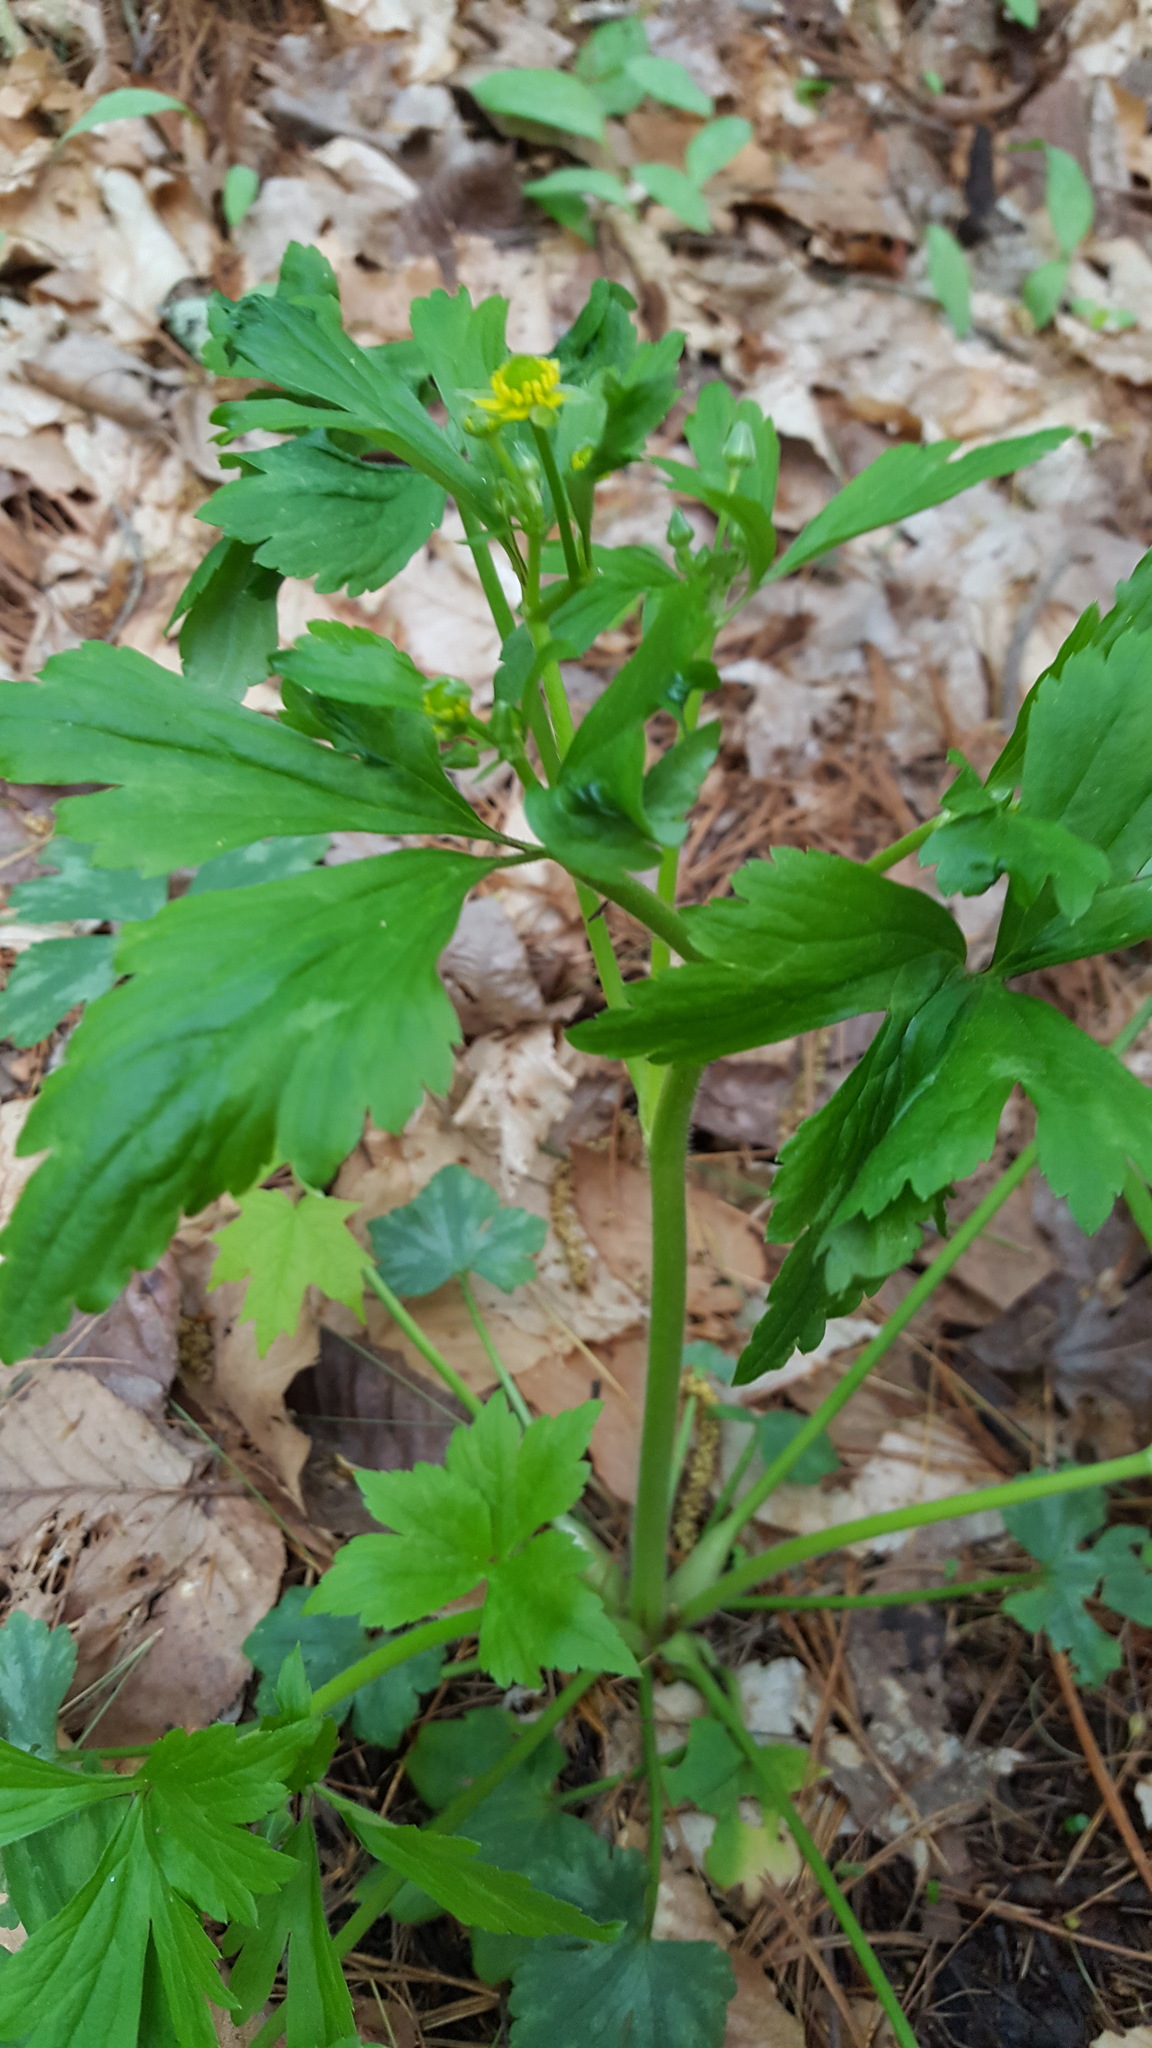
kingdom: Plantae
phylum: Tracheophyta
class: Magnoliopsida
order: Ranunculales
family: Ranunculaceae
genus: Ranunculus
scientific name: Ranunculus recurvatus
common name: Blisterwort
